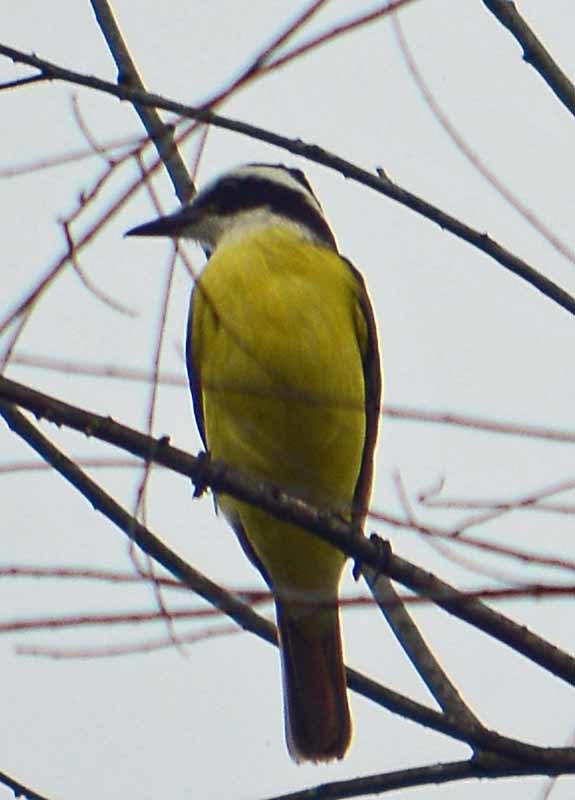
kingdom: Animalia
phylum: Chordata
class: Aves
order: Passeriformes
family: Tyrannidae
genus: Pitangus
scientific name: Pitangus sulphuratus
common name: Great kiskadee
